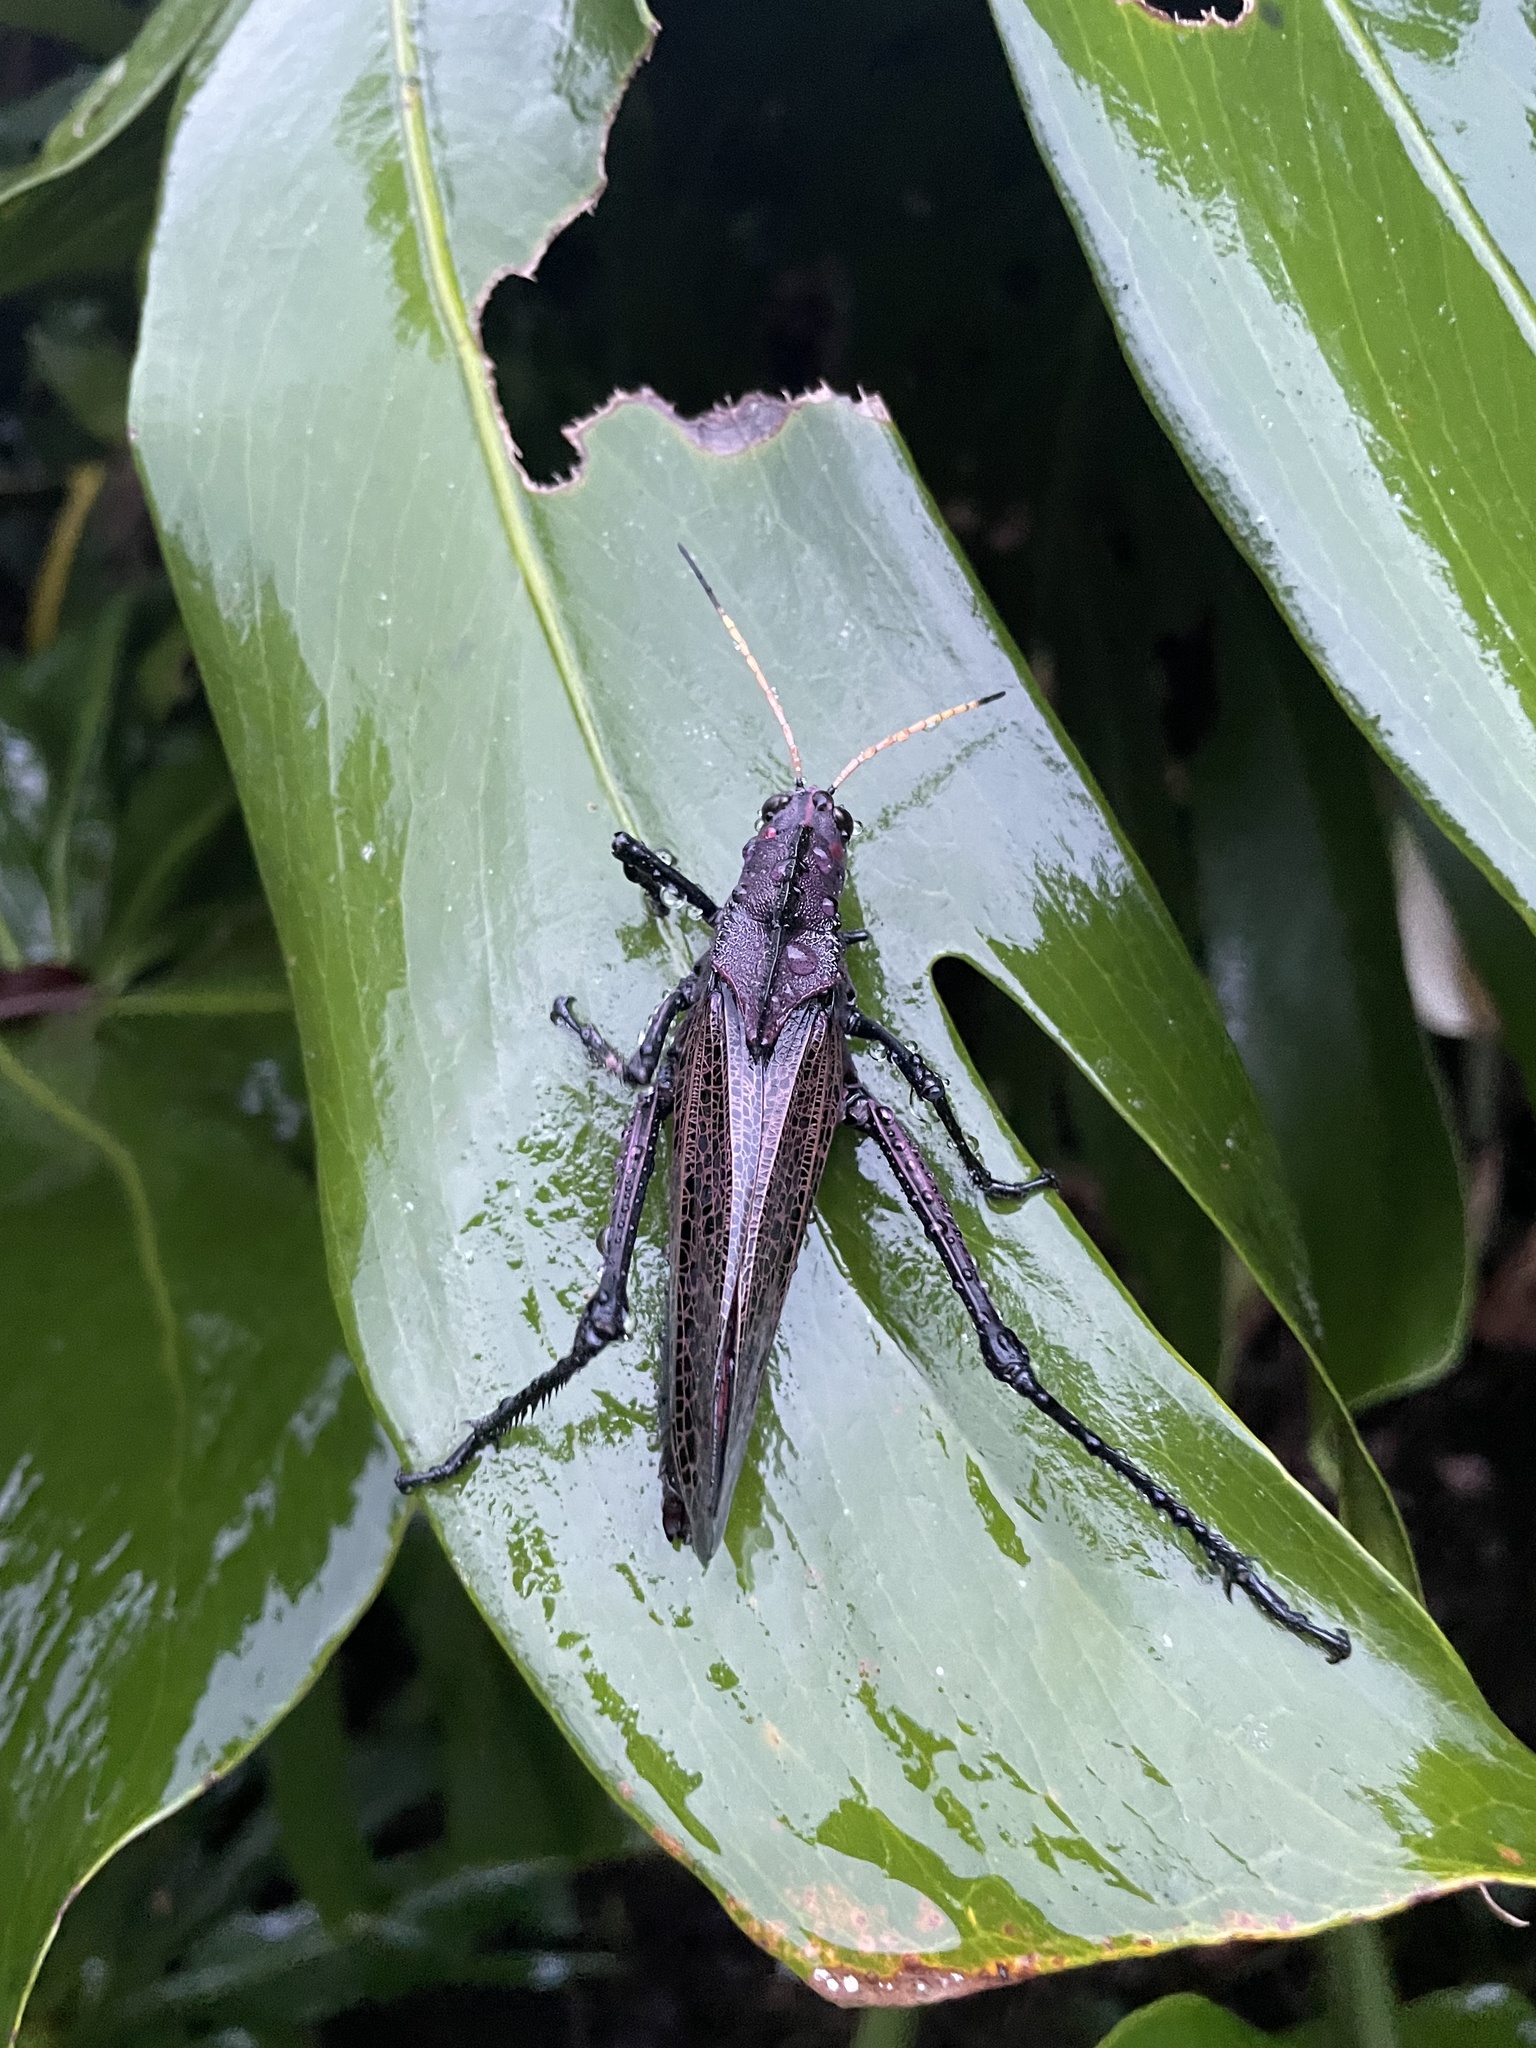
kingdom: Animalia
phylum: Arthropoda
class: Insecta
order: Orthoptera
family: Romaleidae
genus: Romalea
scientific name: Romalea
